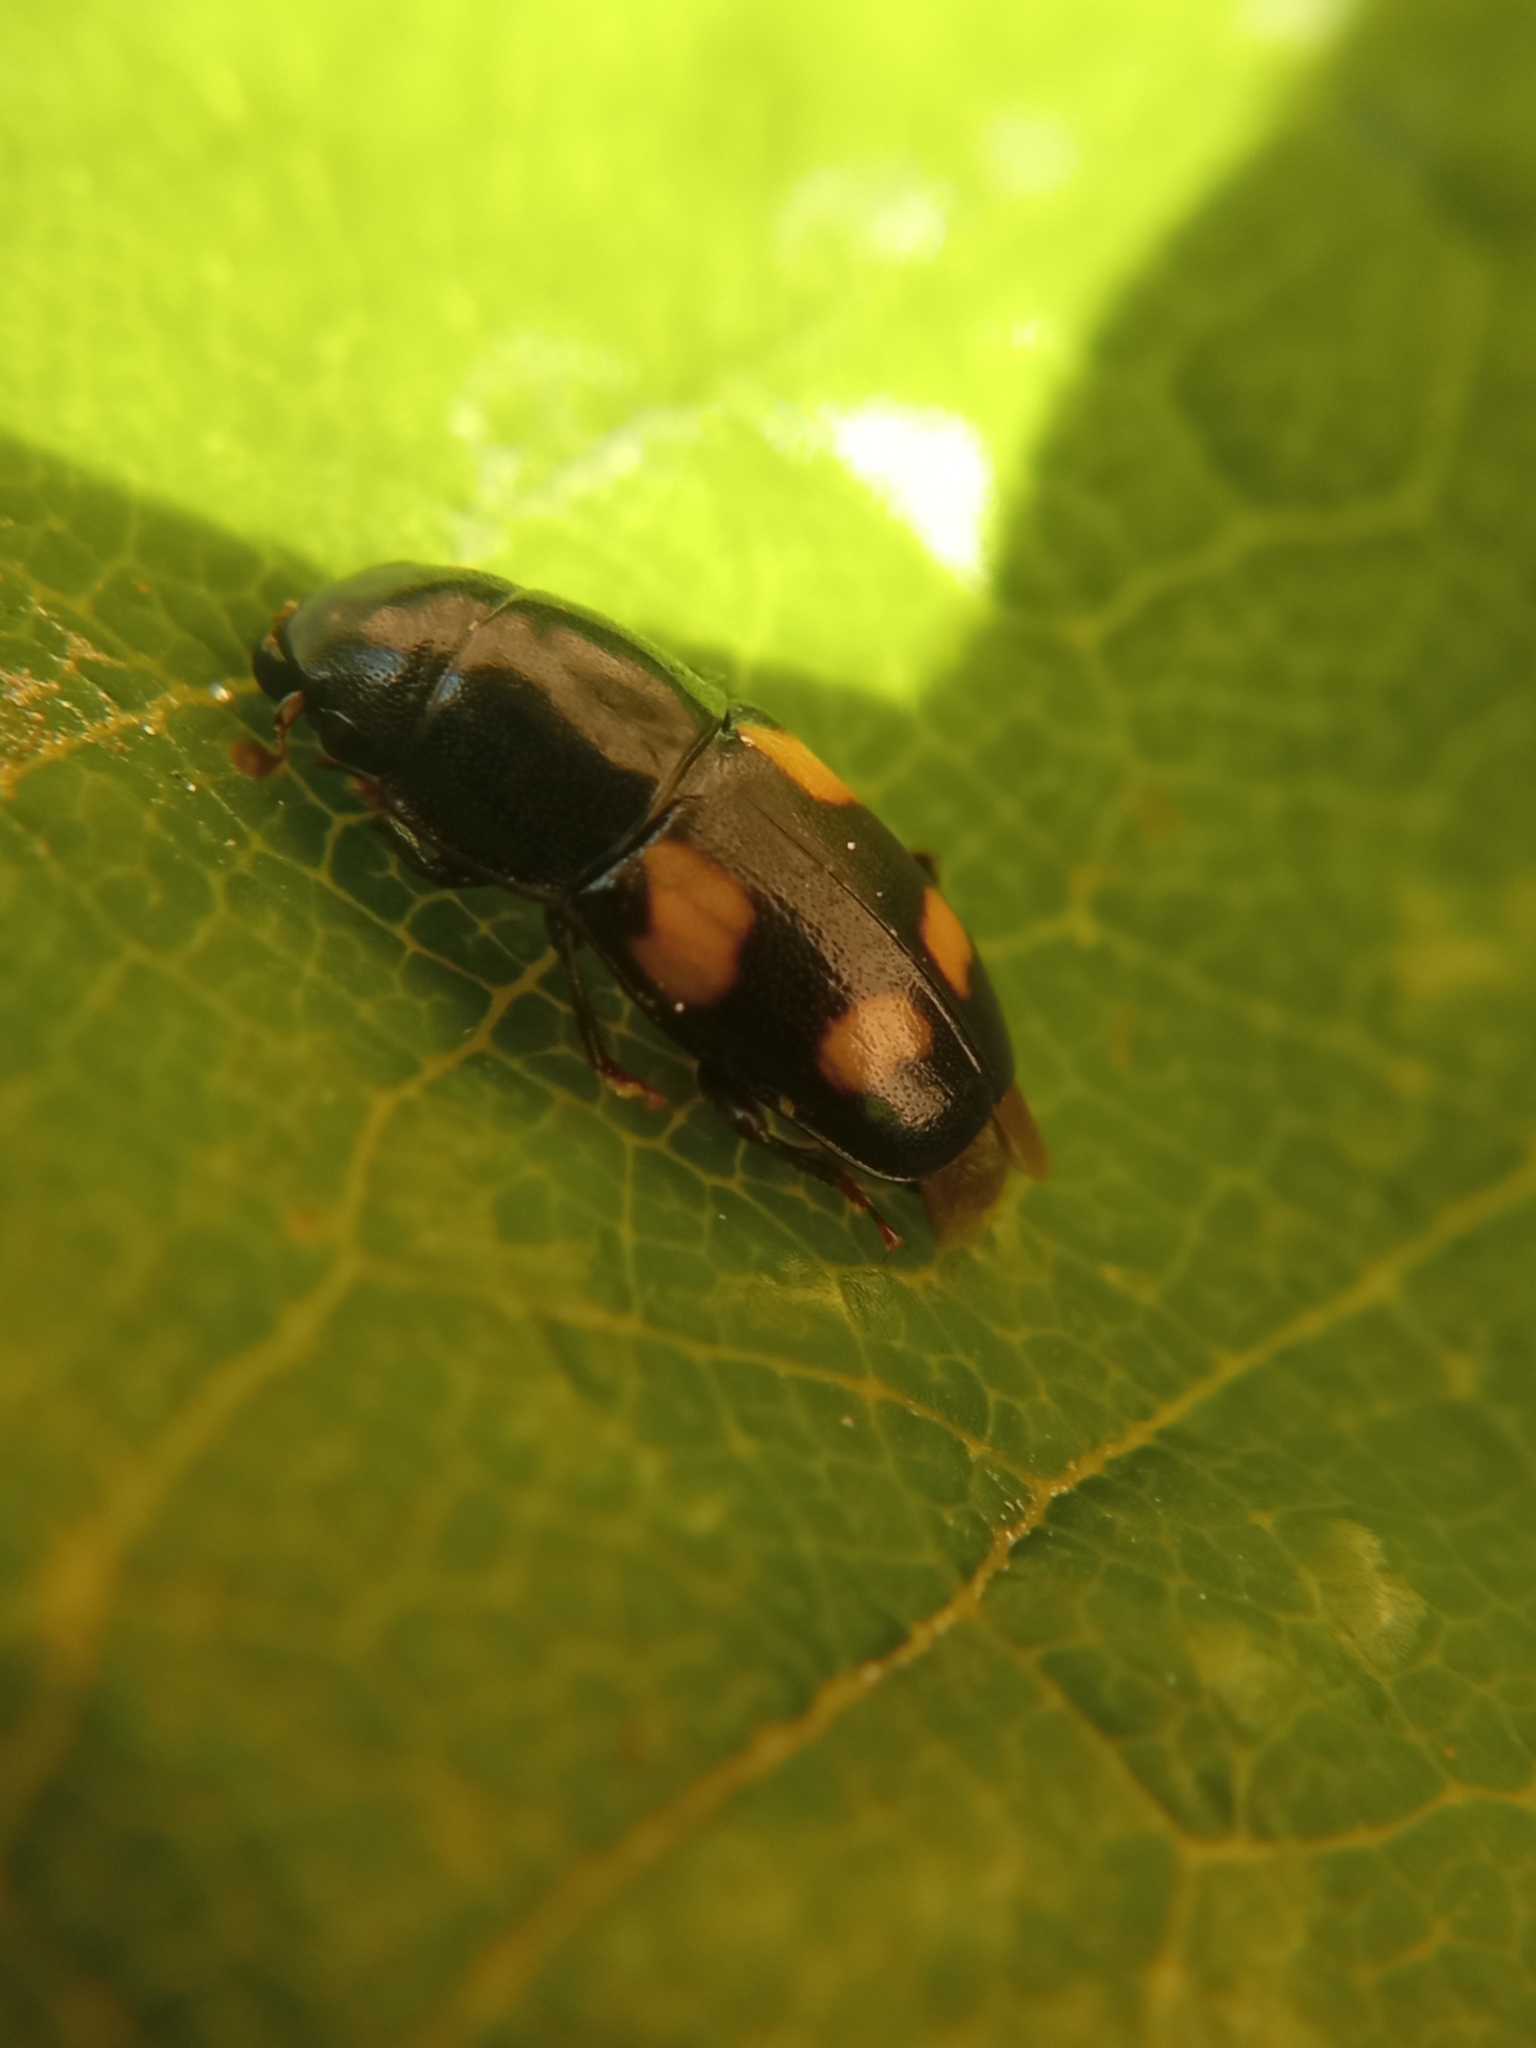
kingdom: Animalia
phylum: Arthropoda
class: Insecta
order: Coleoptera
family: Nitidulidae
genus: Glischrochilus
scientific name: Glischrochilus quadrisignatus
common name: Picnic beetle
